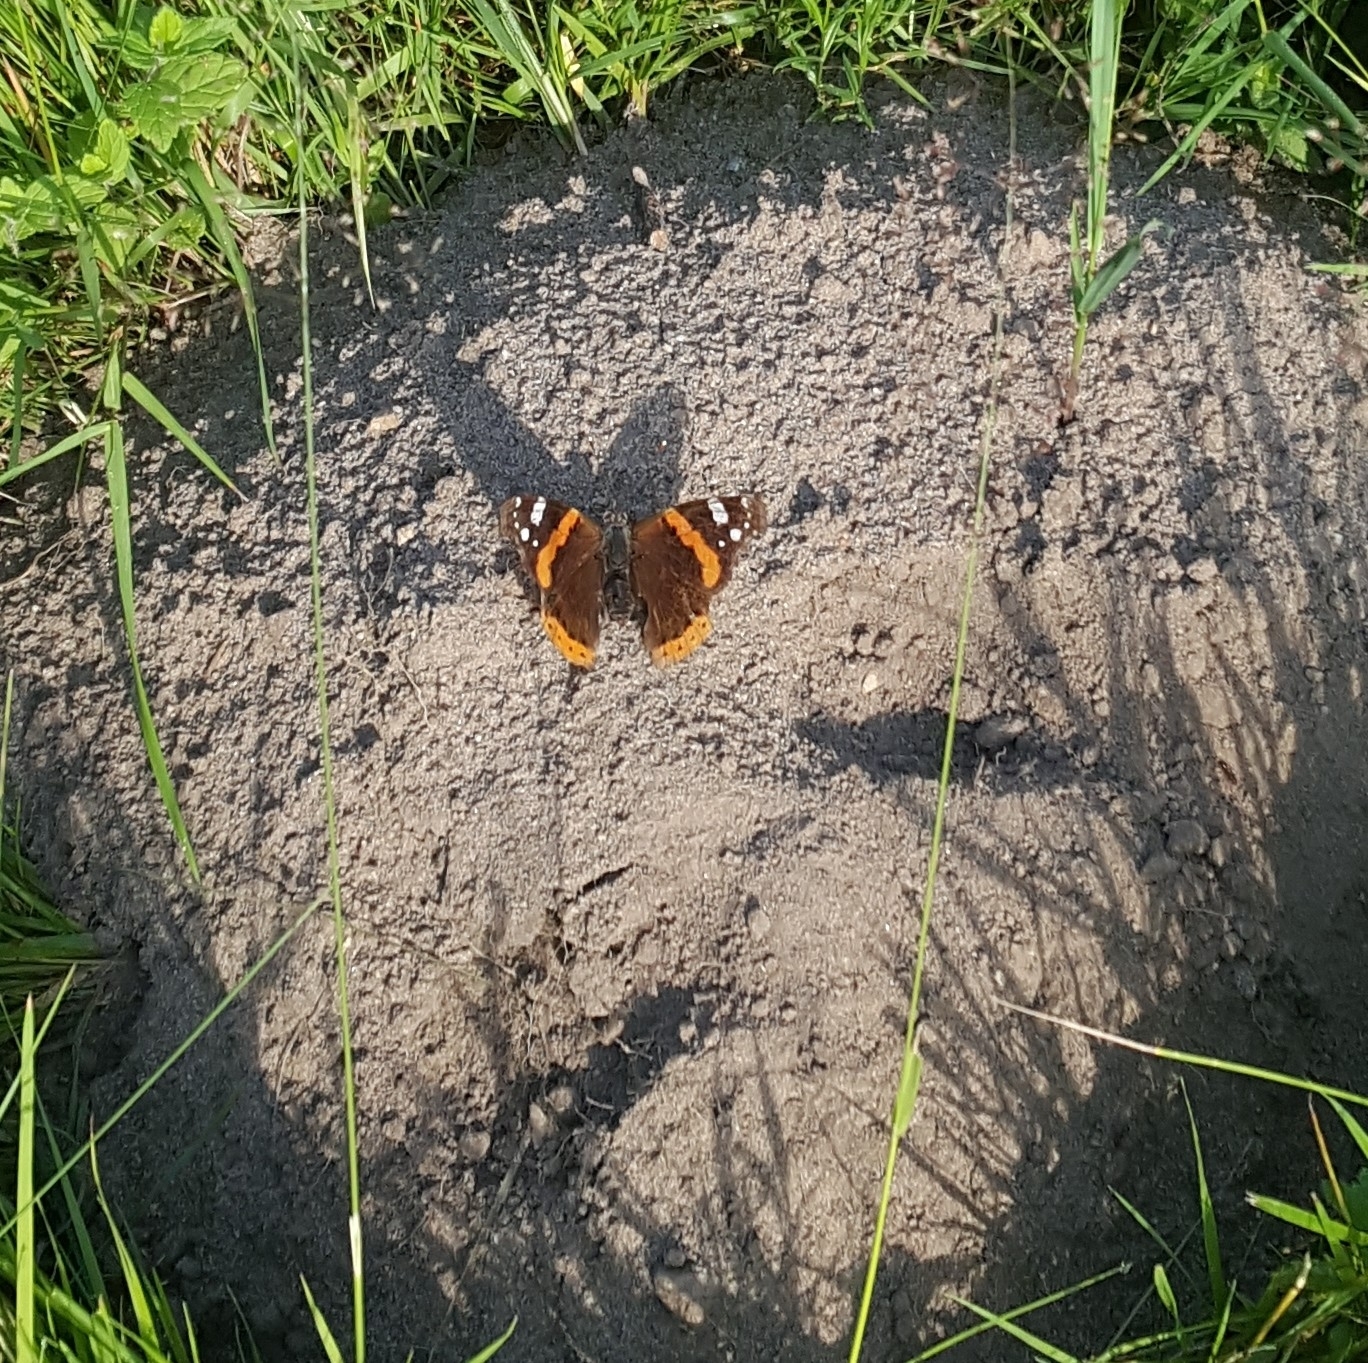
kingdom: Animalia
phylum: Arthropoda
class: Insecta
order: Lepidoptera
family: Nymphalidae
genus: Vanessa
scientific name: Vanessa atalanta
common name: Red admiral
